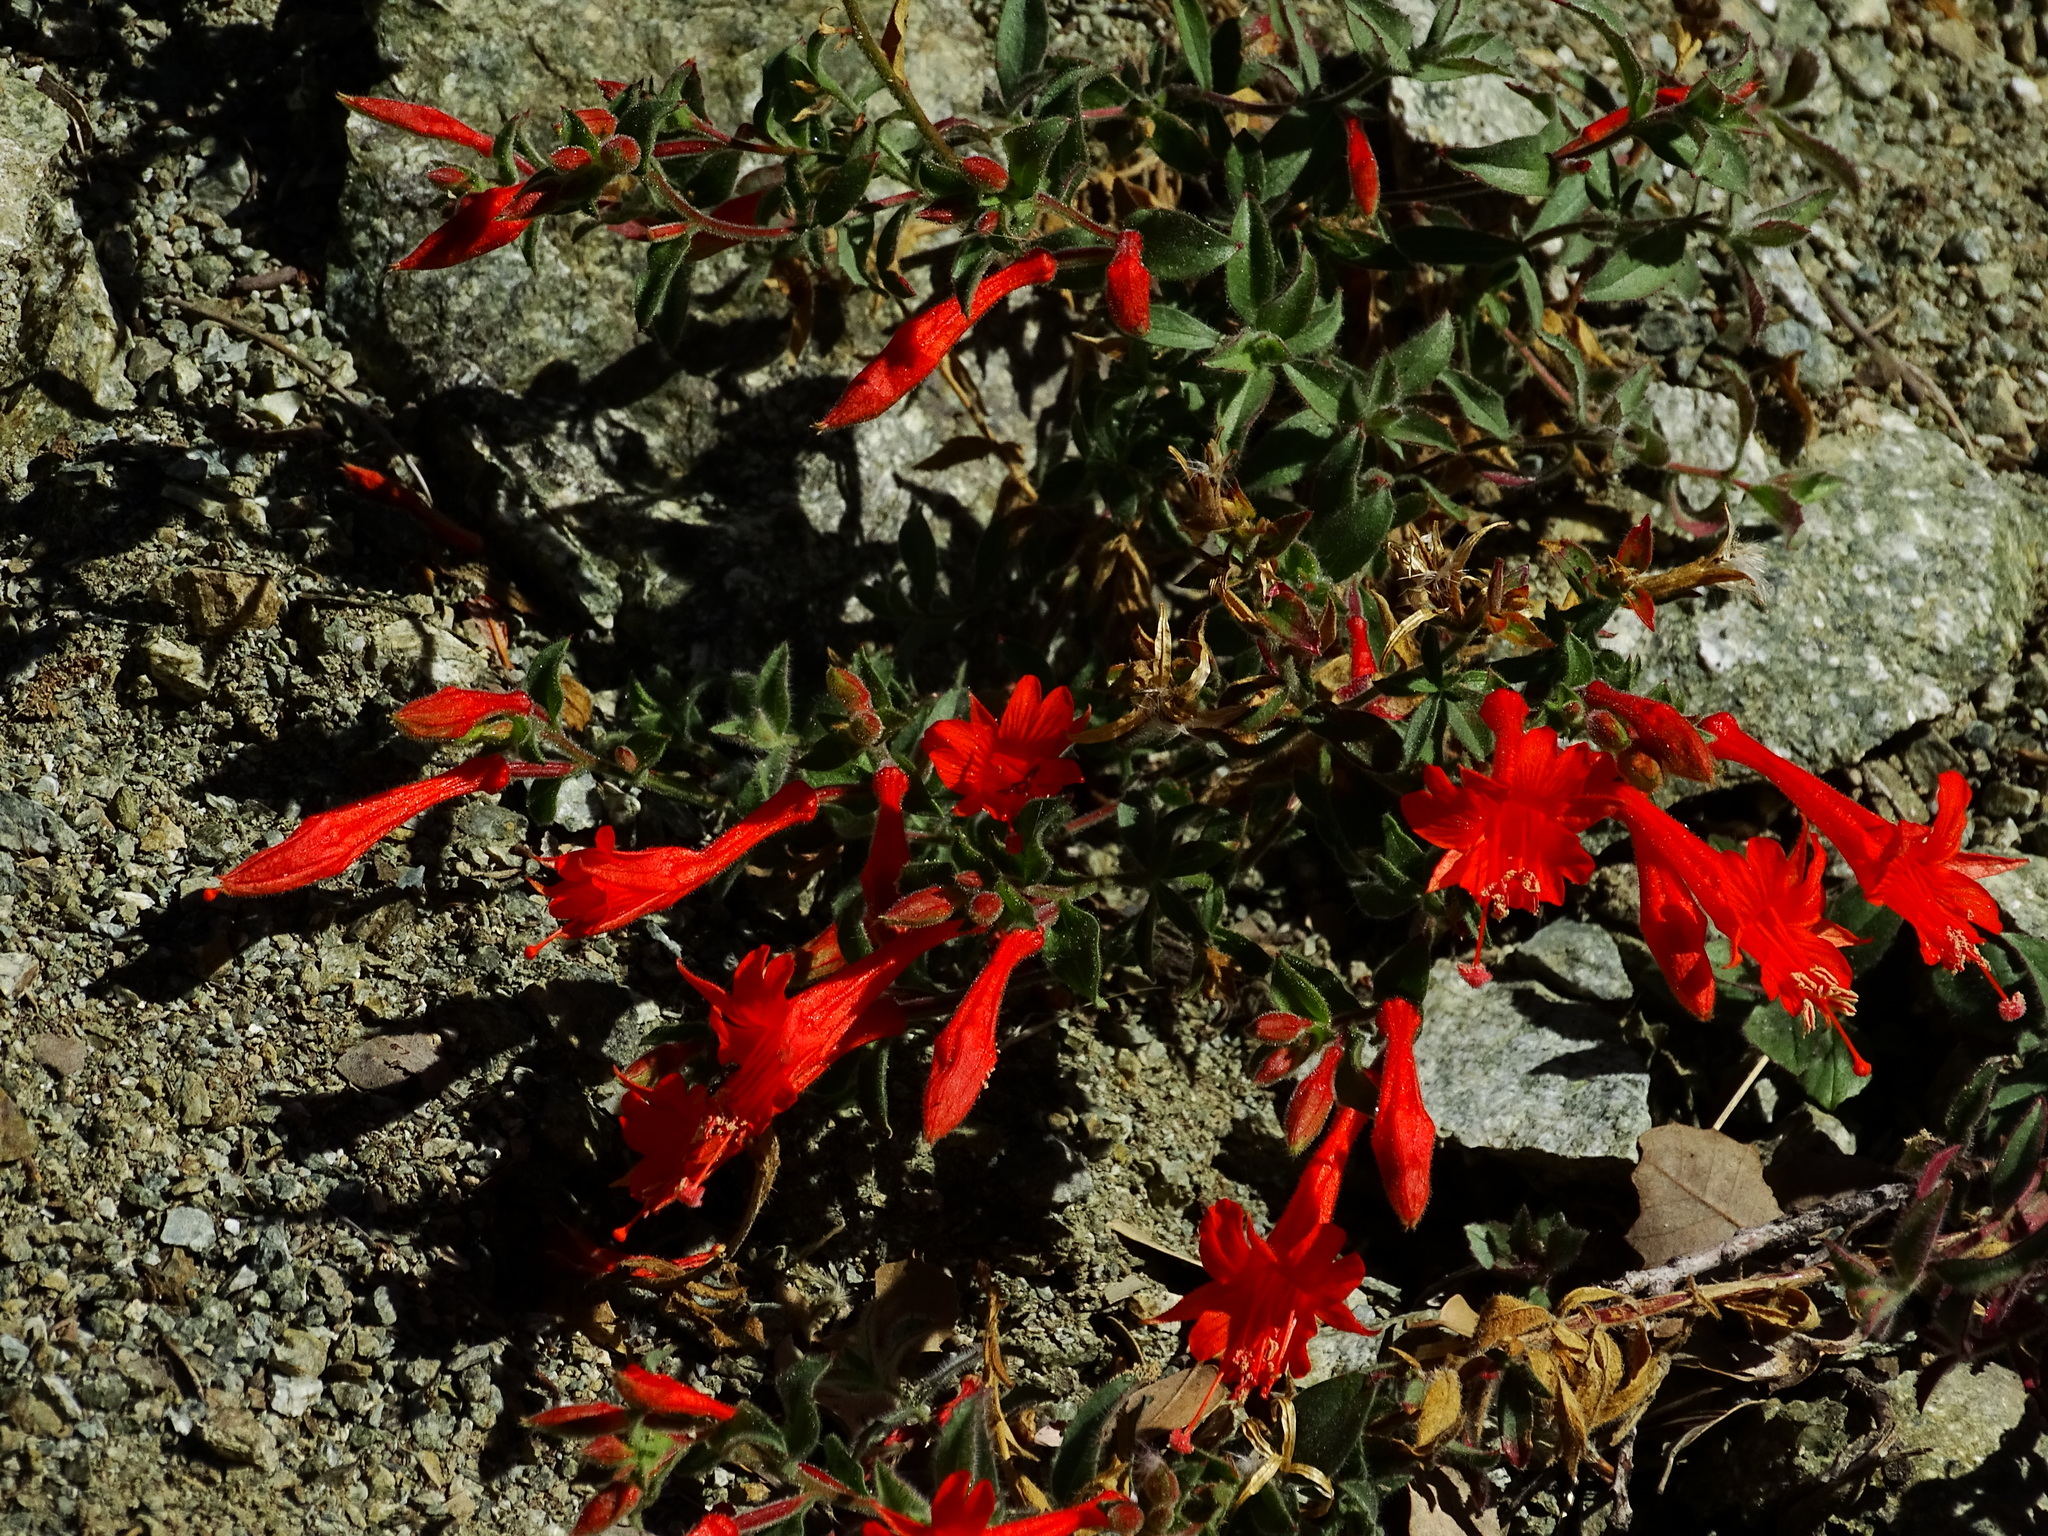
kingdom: Plantae
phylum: Tracheophyta
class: Magnoliopsida
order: Myrtales
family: Onagraceae
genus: Epilobium
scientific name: Epilobium canum
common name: California-fuchsia
